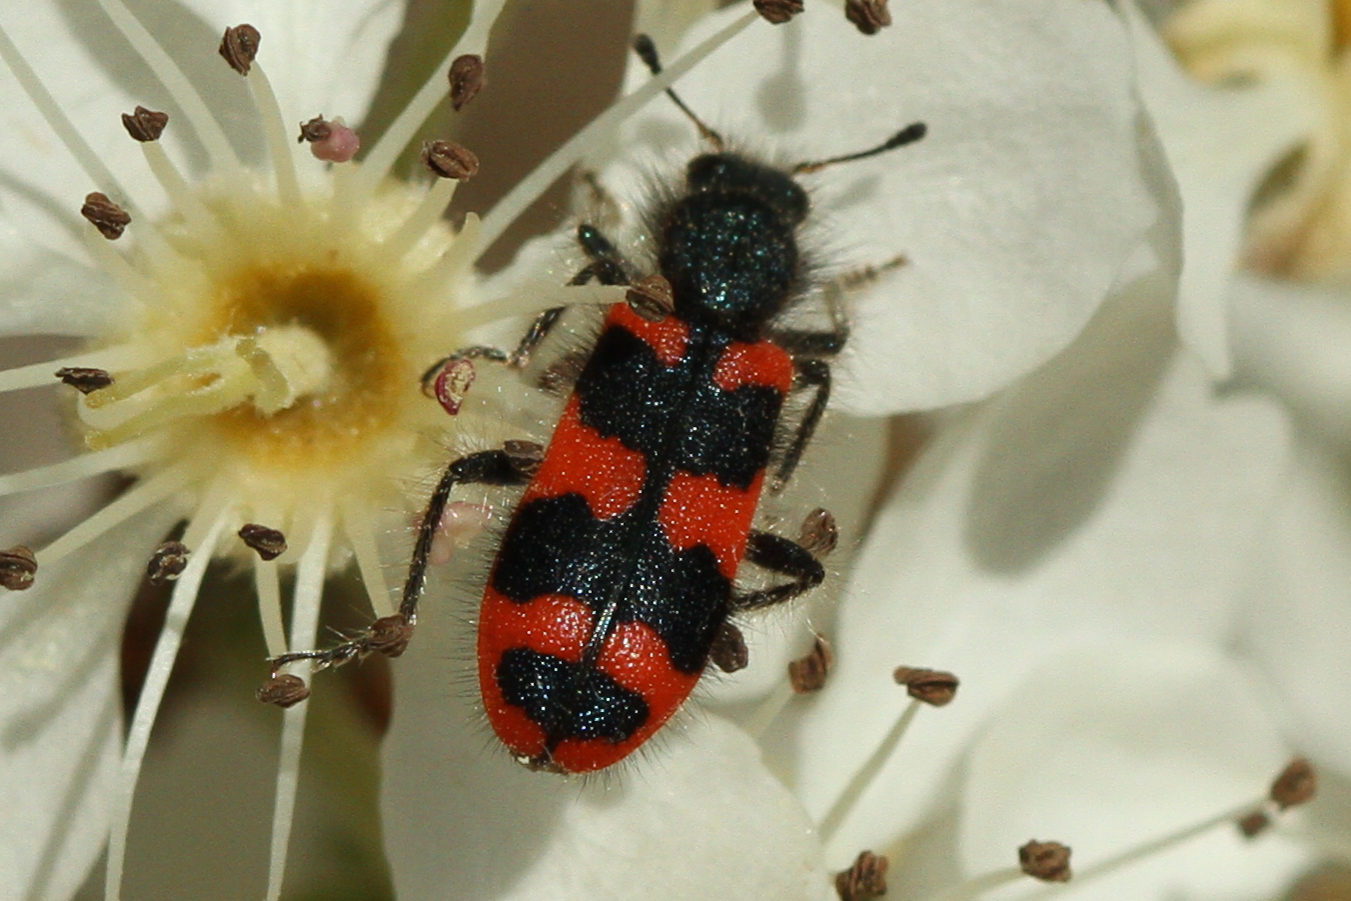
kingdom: Animalia
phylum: Arthropoda
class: Insecta
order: Coleoptera
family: Cleridae
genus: Trichodes
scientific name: Trichodes alvearius
